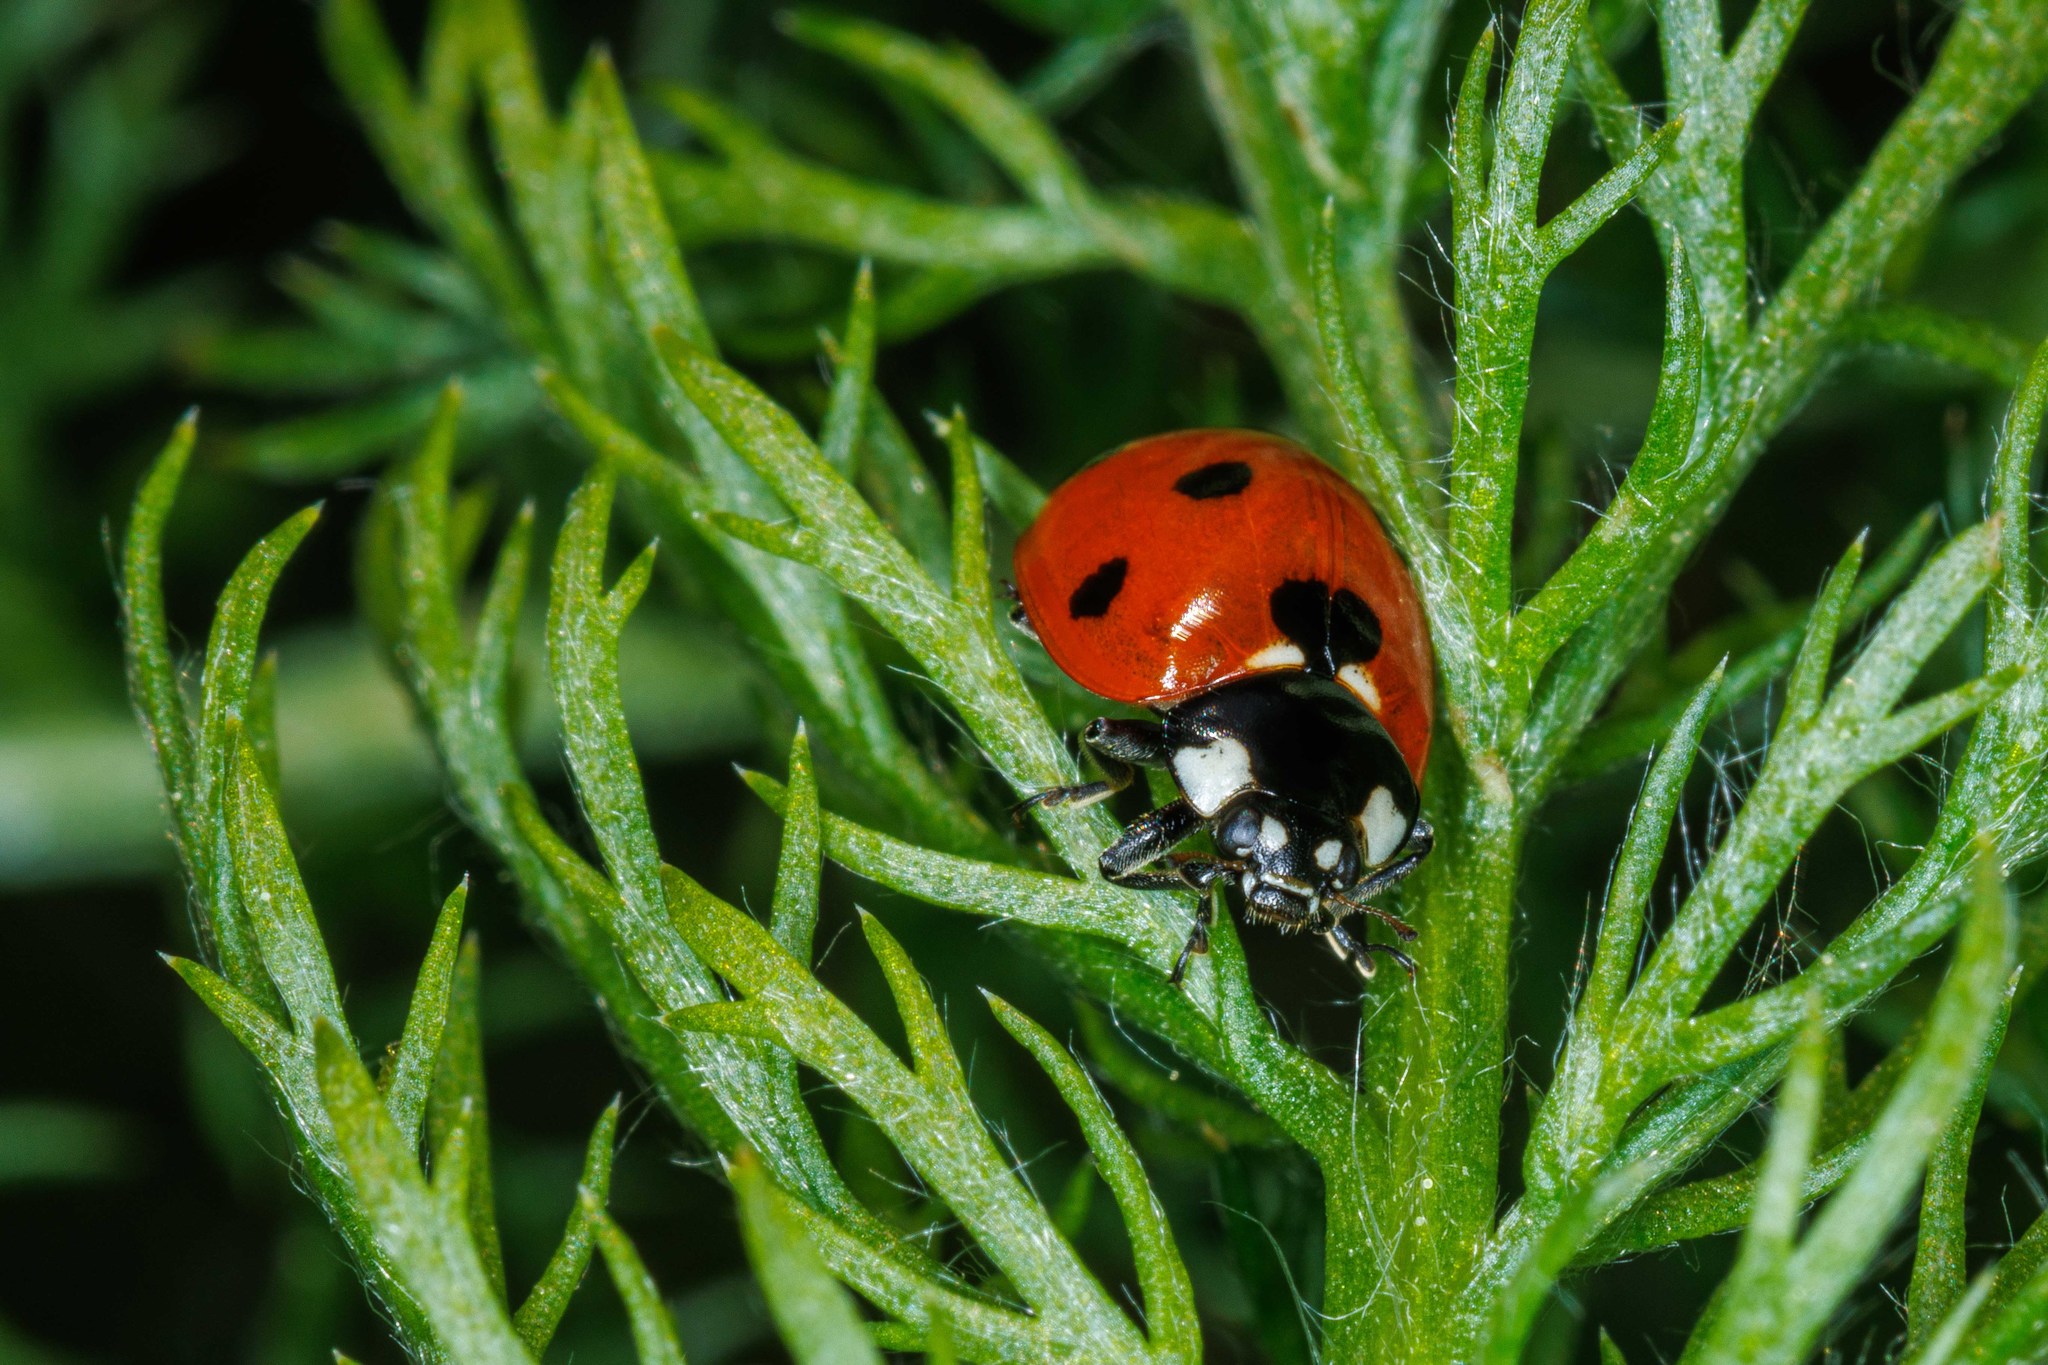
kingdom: Animalia
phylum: Arthropoda
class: Insecta
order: Coleoptera
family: Coccinellidae
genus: Coccinella
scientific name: Coccinella septempunctata
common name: Sevenspotted lady beetle
